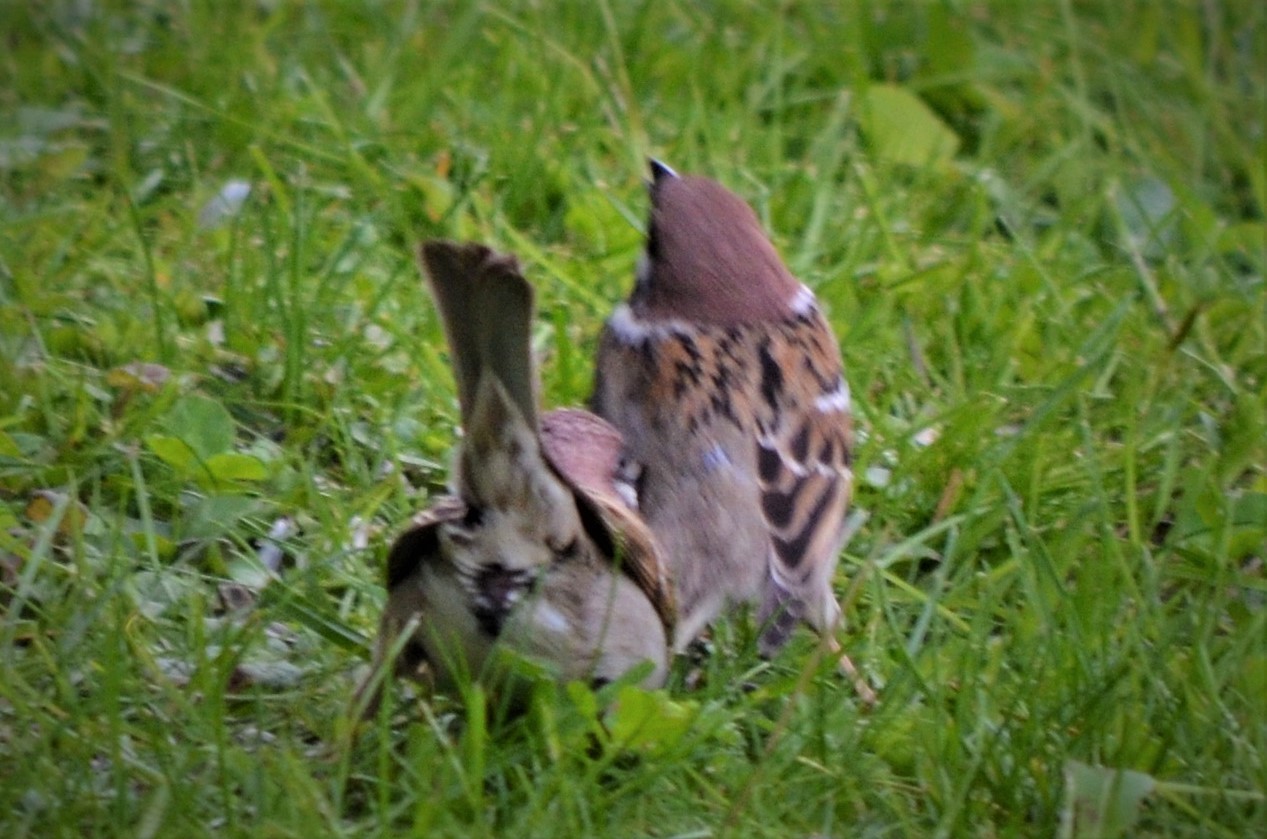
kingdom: Animalia
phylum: Chordata
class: Aves
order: Passeriformes
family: Passeridae
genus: Passer
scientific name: Passer montanus
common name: Eurasian tree sparrow
